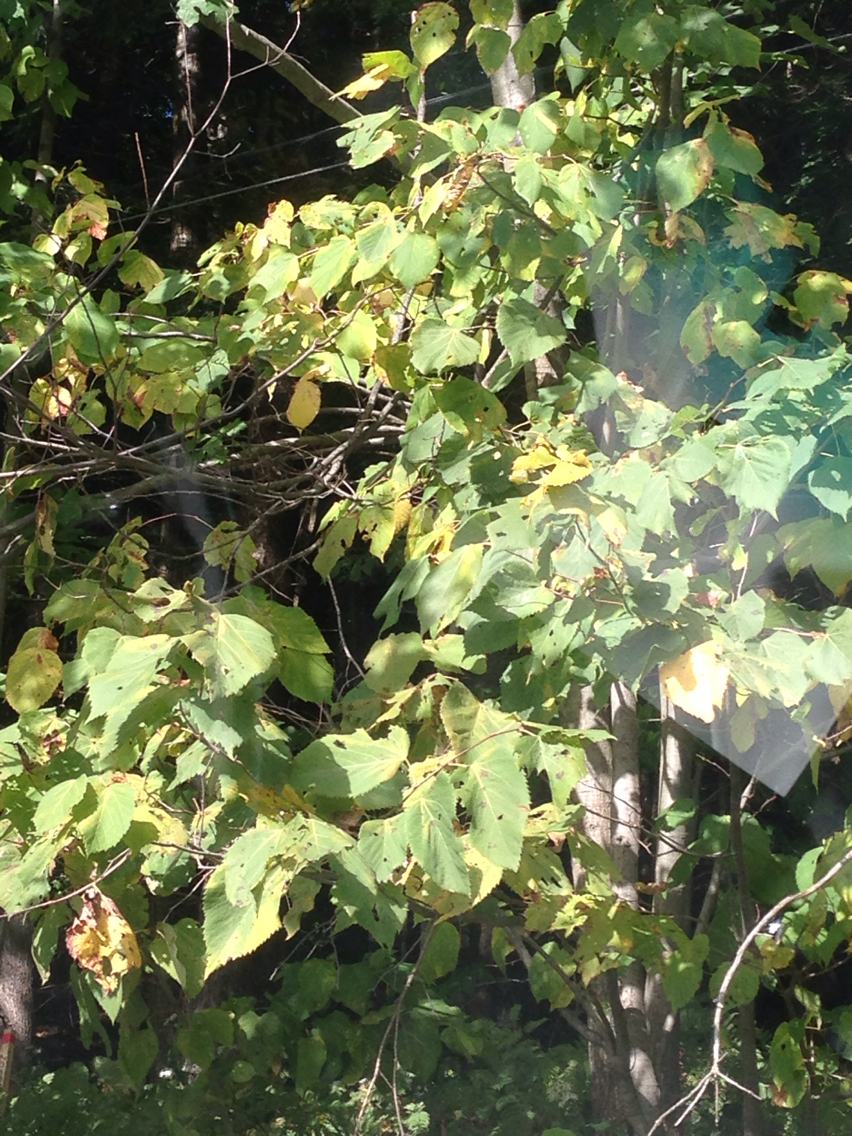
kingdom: Plantae
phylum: Tracheophyta
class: Magnoliopsida
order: Malvales
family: Malvaceae
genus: Tilia
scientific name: Tilia americana
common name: Basswood
